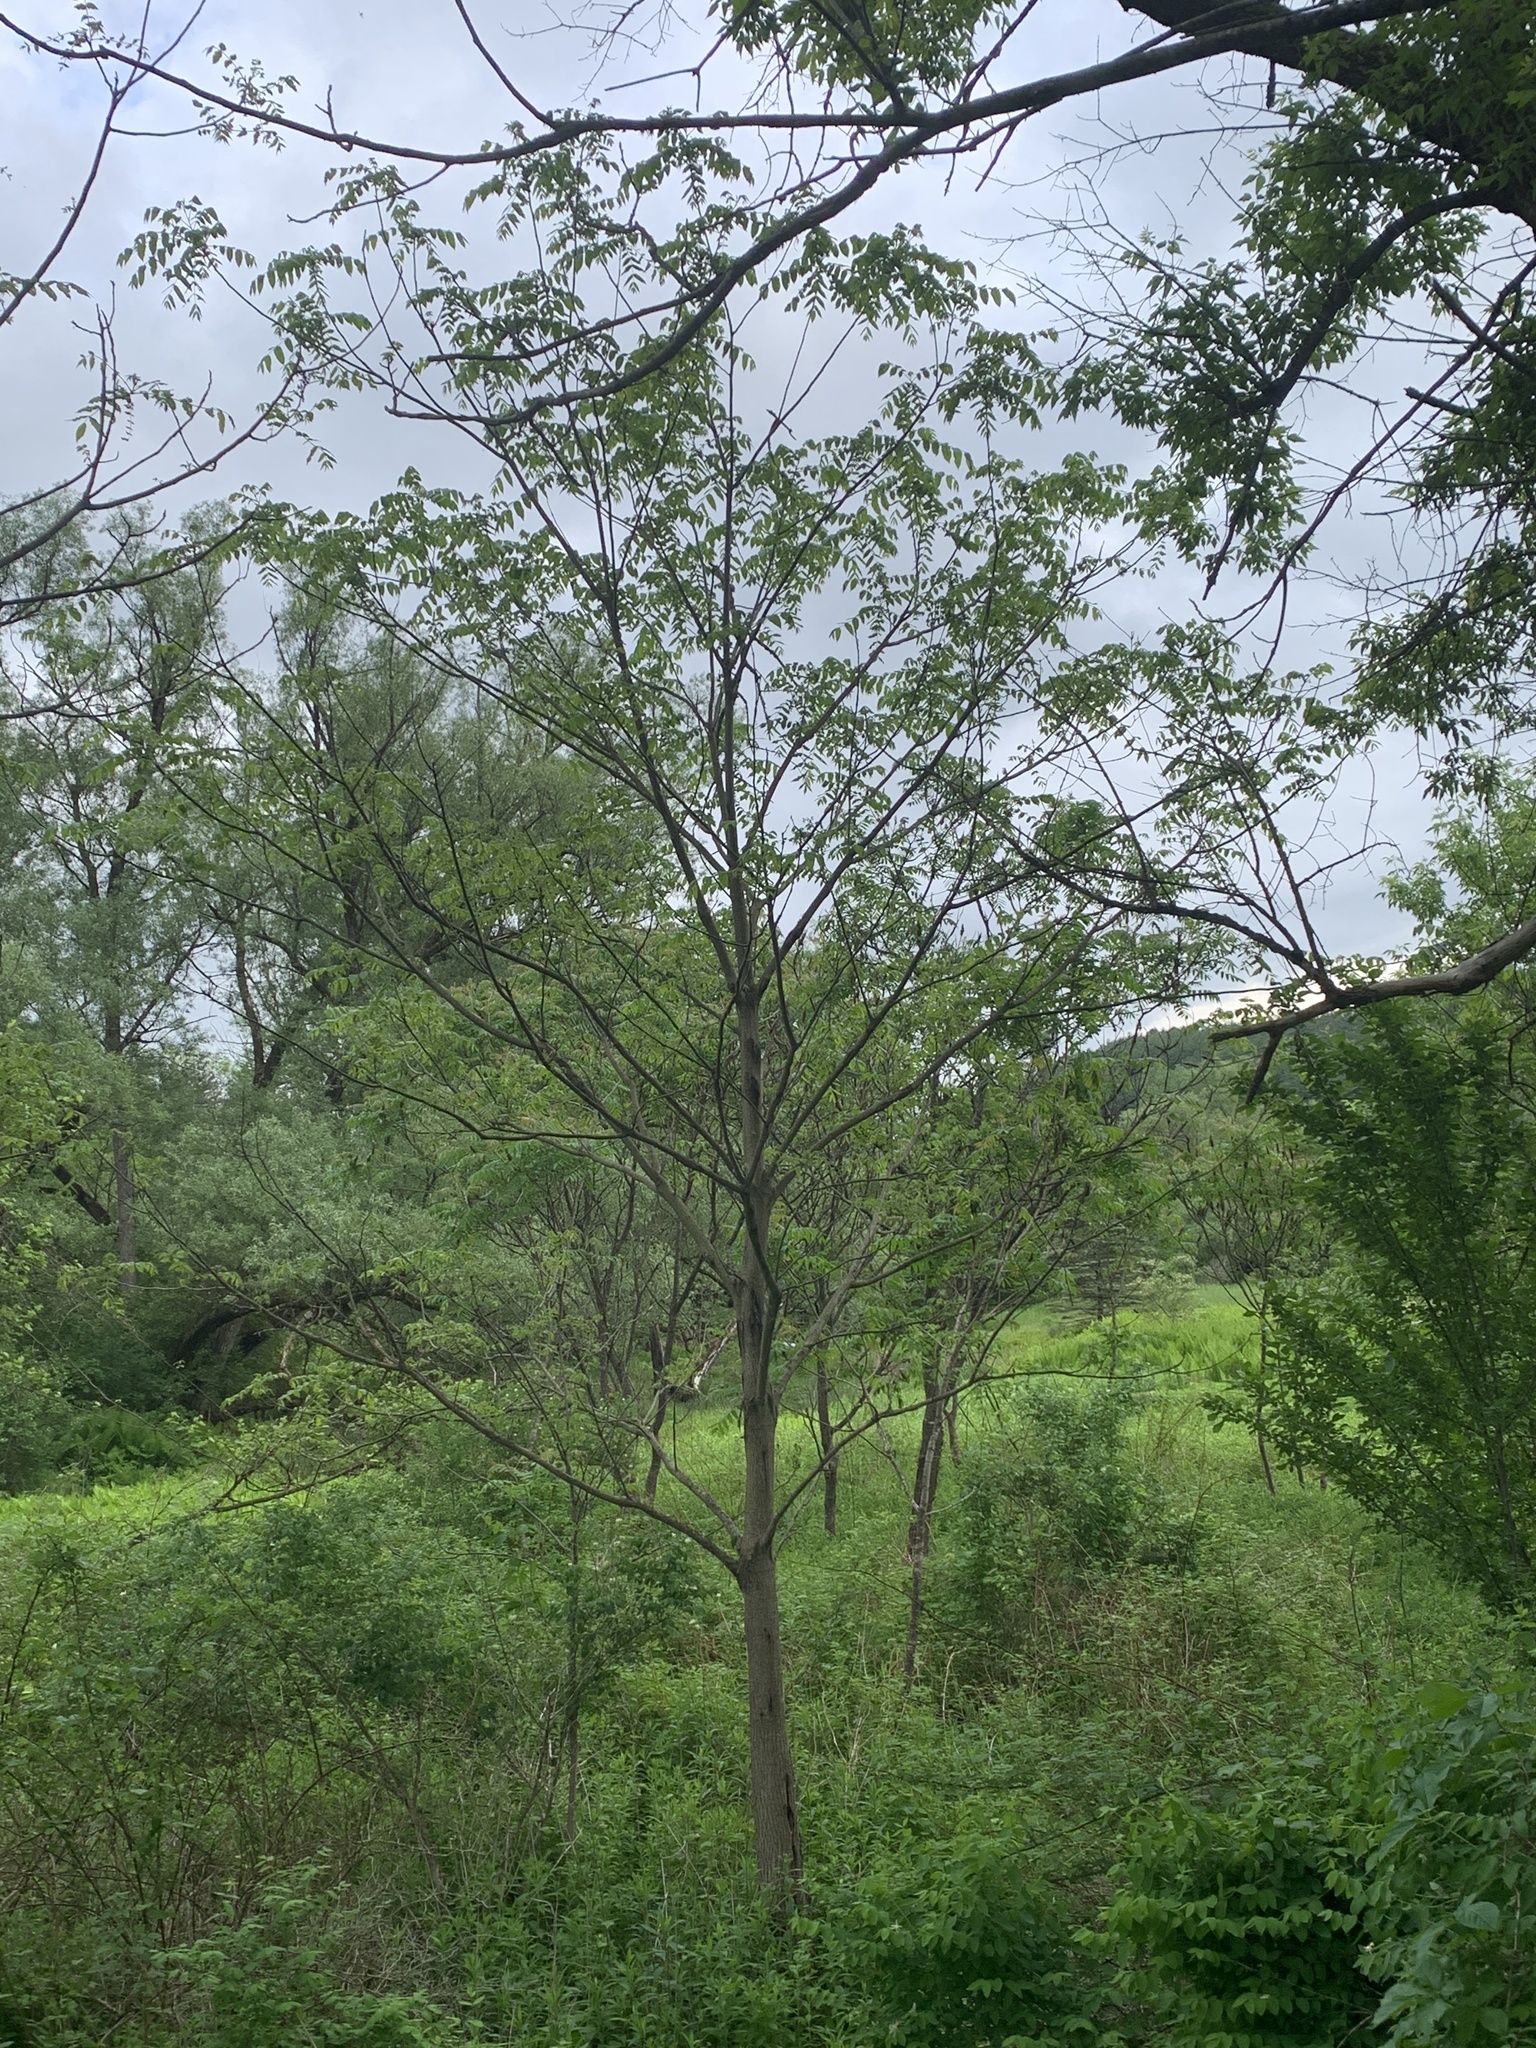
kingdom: Plantae
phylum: Tracheophyta
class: Magnoliopsida
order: Fagales
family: Juglandaceae
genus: Juglans
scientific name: Juglans cinerea
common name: Butternut
